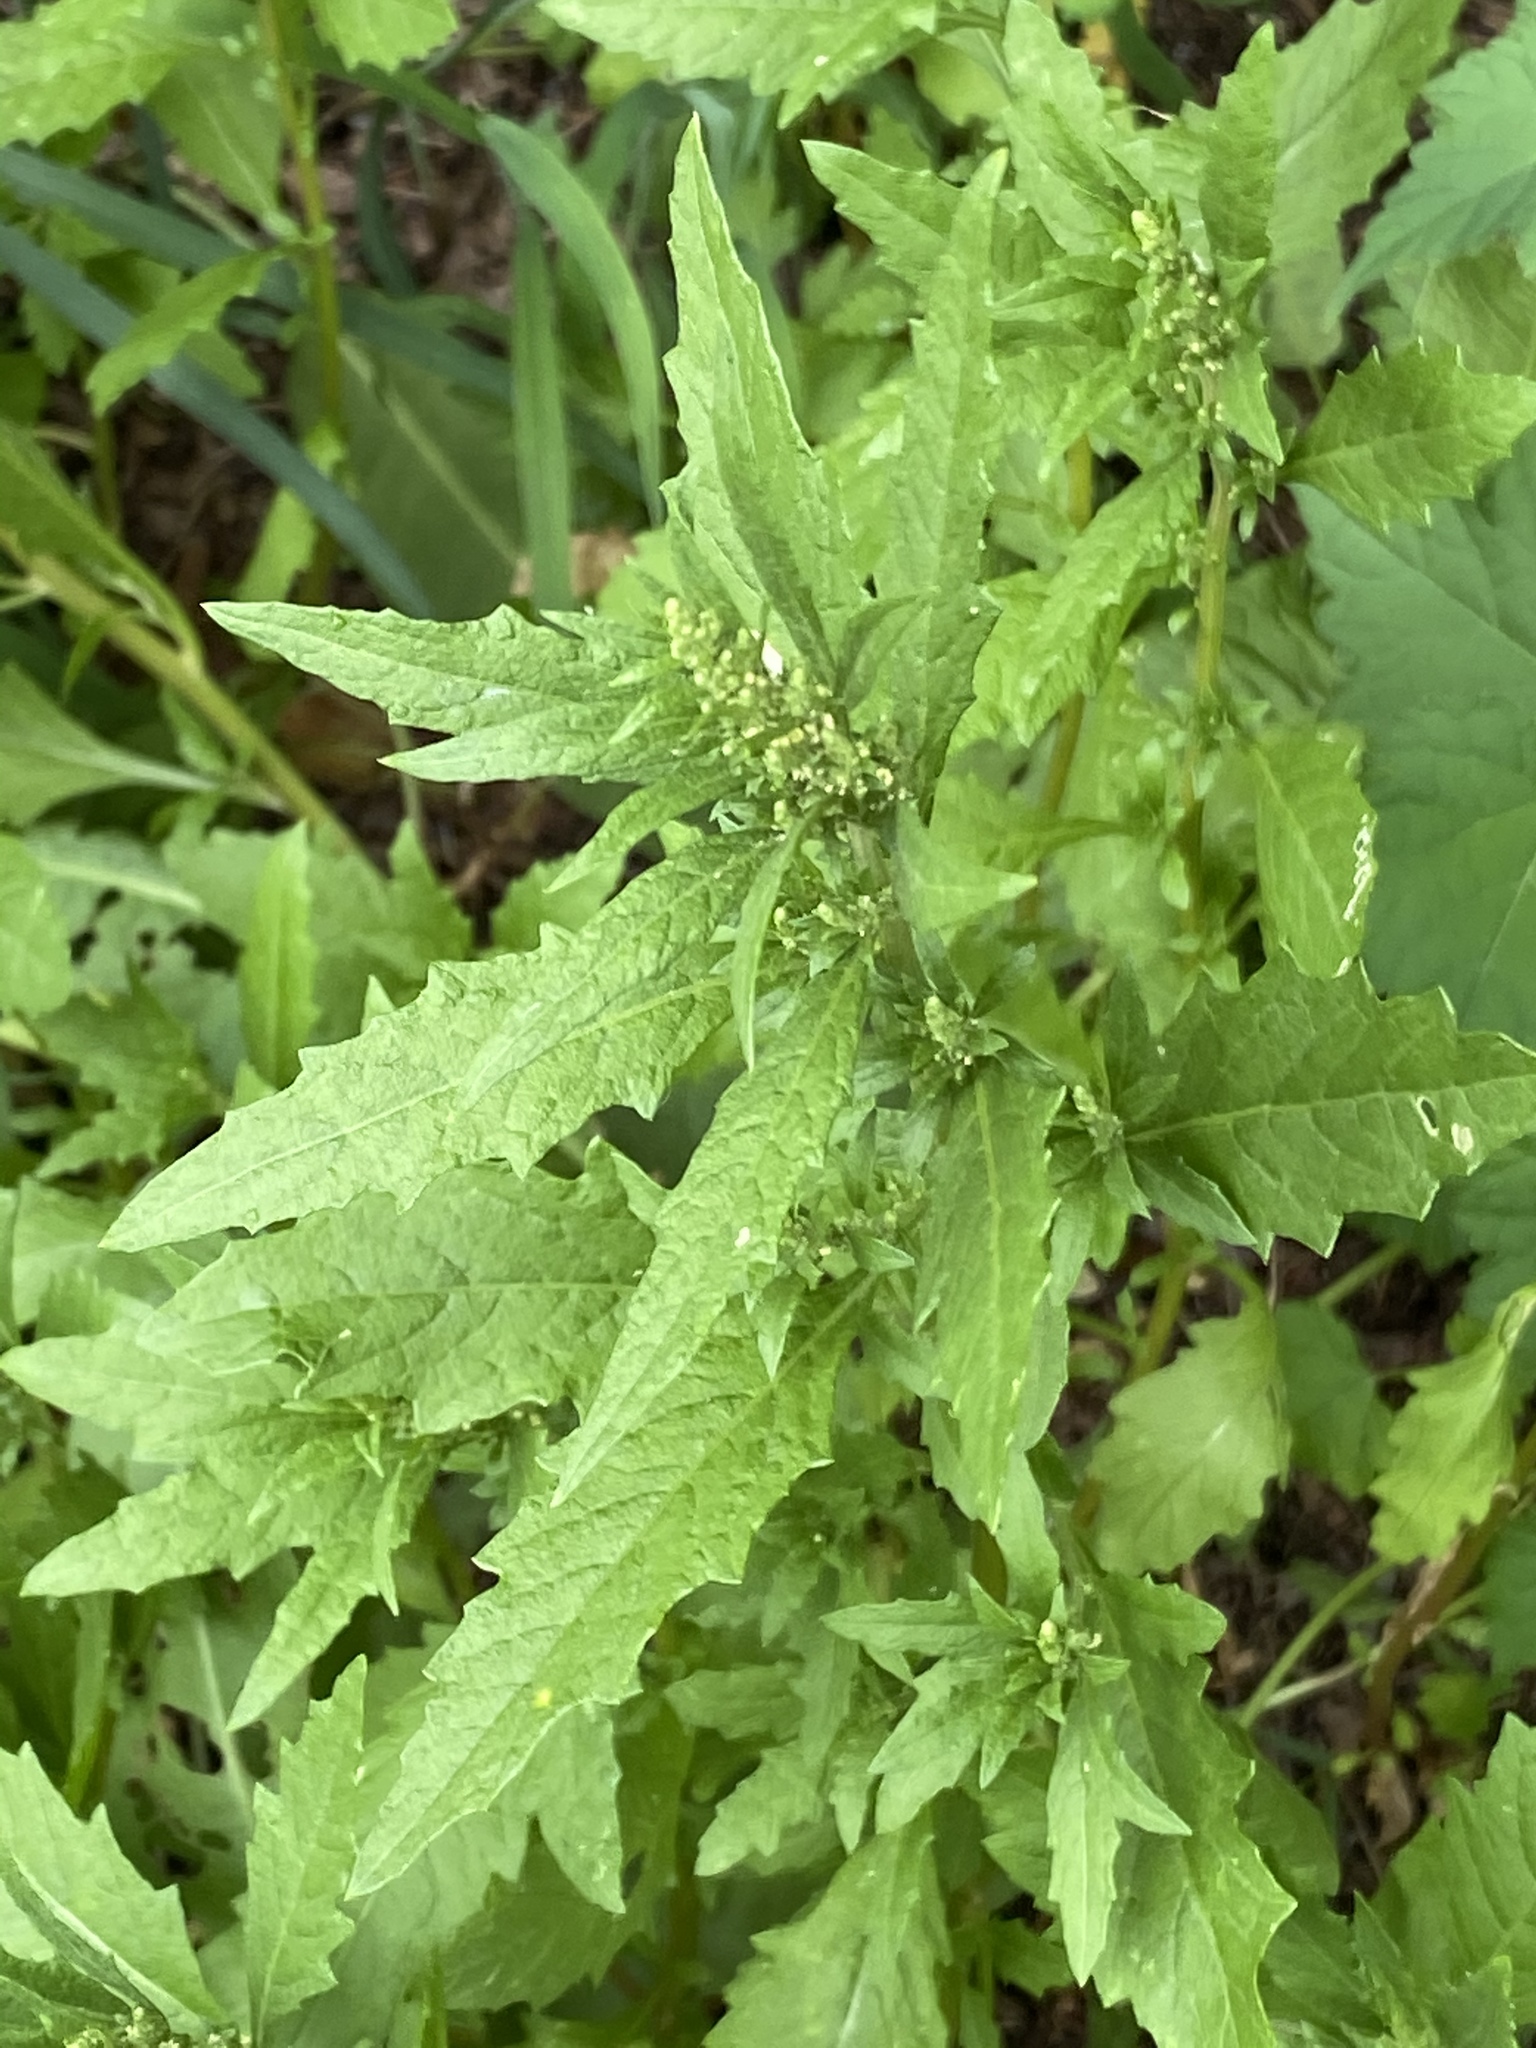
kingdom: Plantae
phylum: Tracheophyta
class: Magnoliopsida
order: Caryophyllales
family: Amaranthaceae
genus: Dysphania
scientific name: Dysphania ambrosioides
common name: Wormseed
